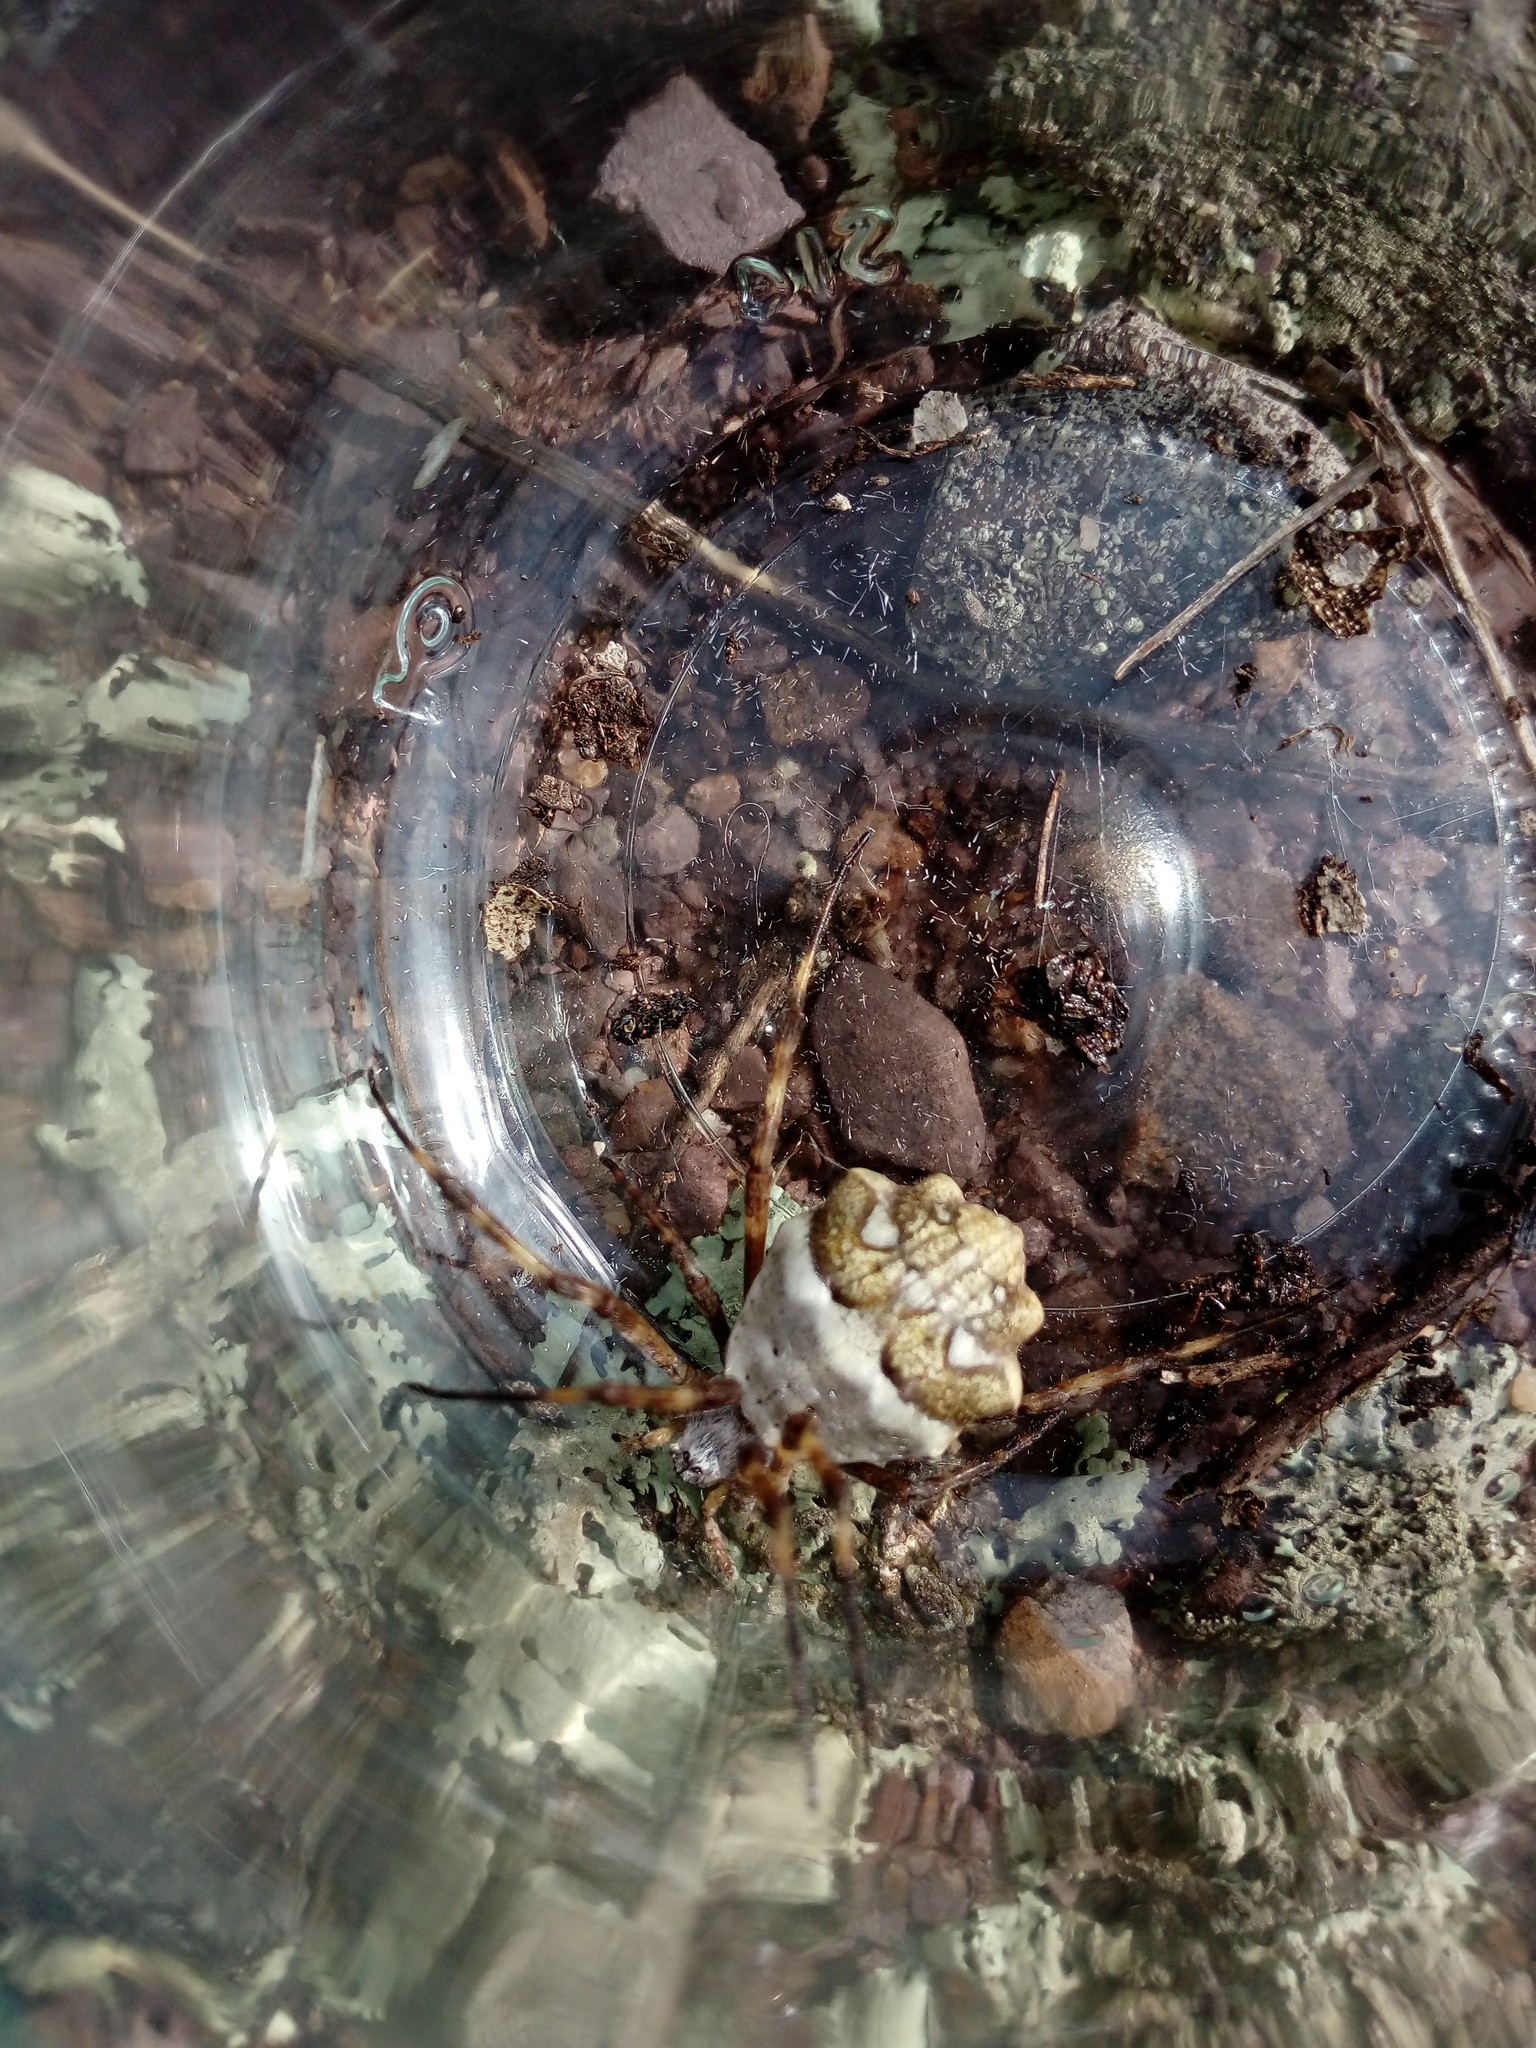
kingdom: Animalia
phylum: Arthropoda
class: Arachnida
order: Araneae
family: Araneidae
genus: Argiope
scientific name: Argiope argentata
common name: Orb weavers
